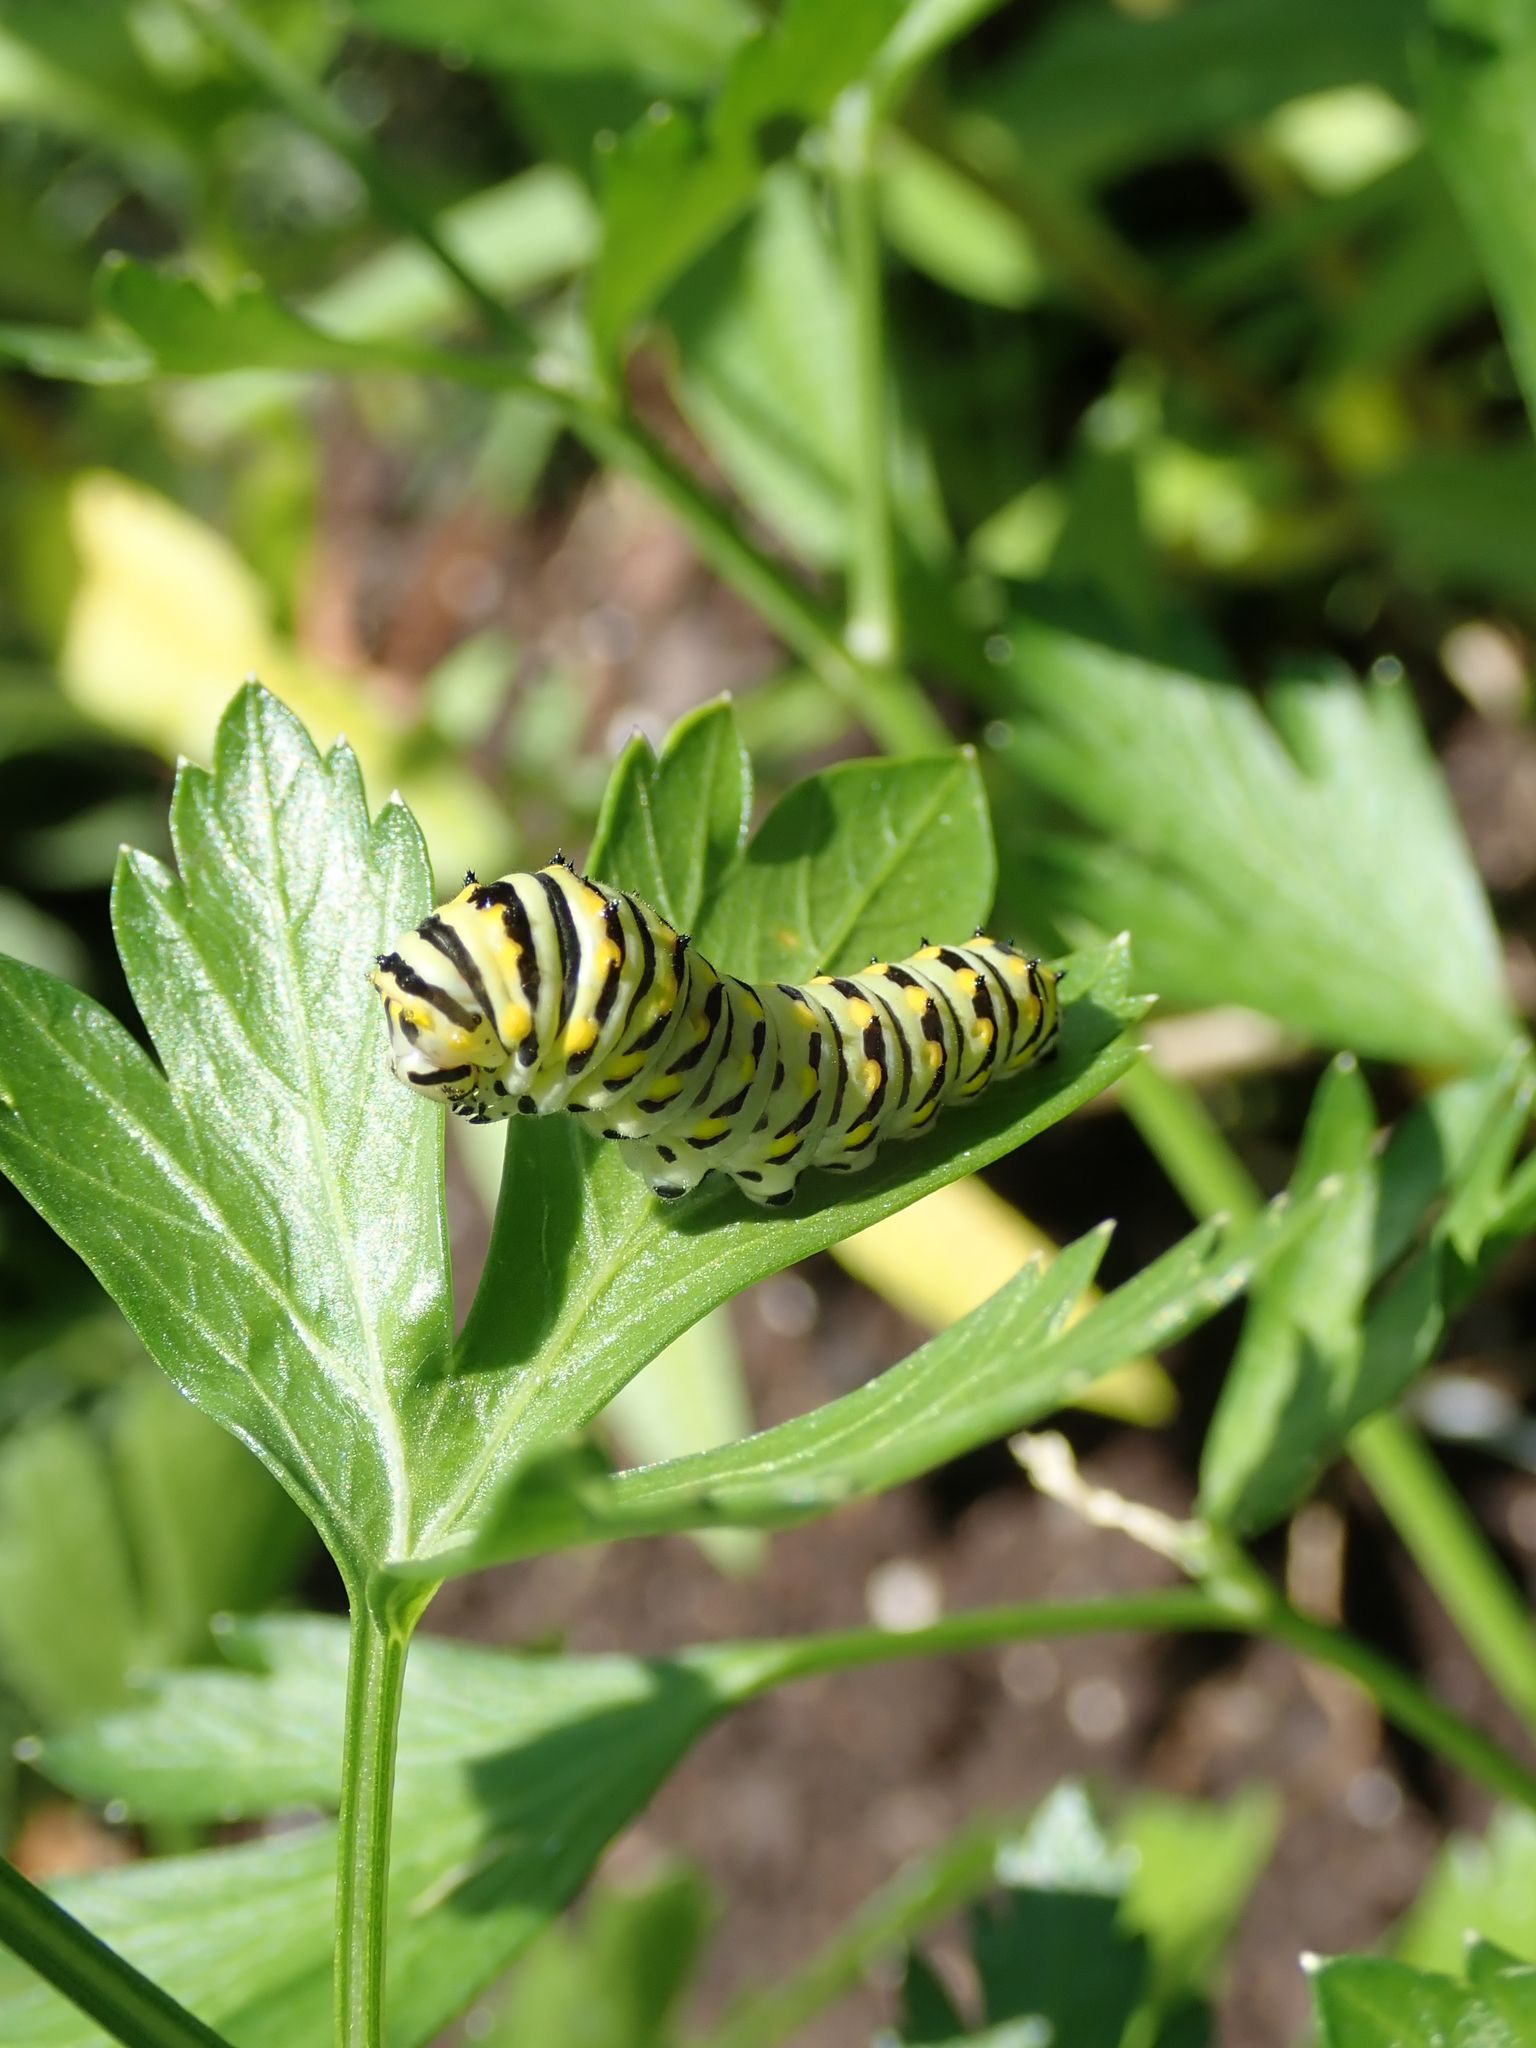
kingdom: Animalia
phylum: Arthropoda
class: Insecta
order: Lepidoptera
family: Papilionidae
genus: Papilio
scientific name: Papilio polyxenes
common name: Black swallowtail
